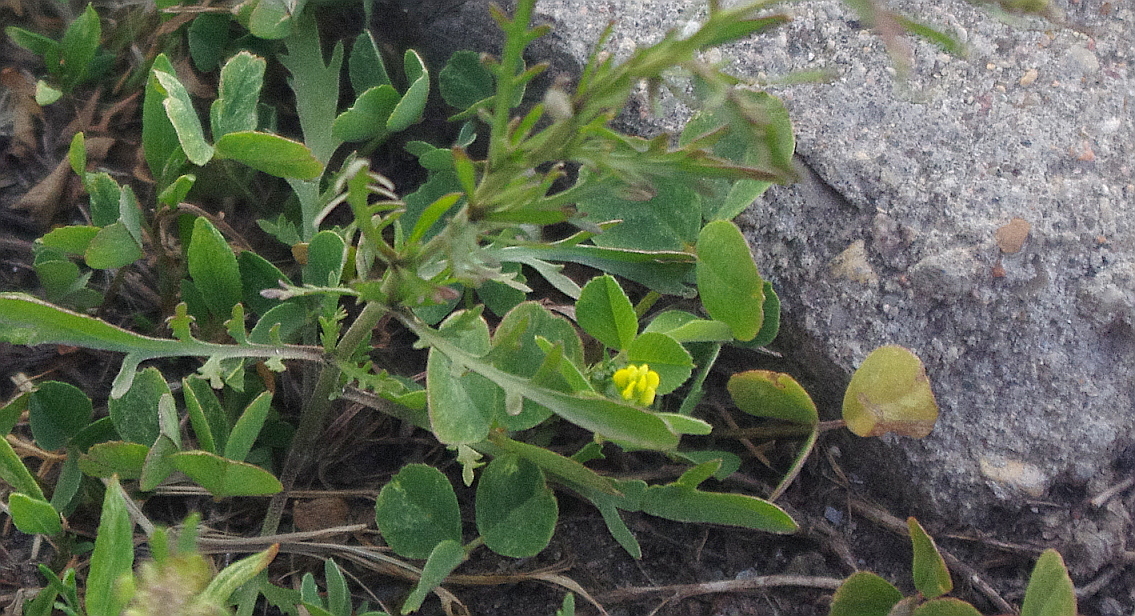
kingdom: Plantae
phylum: Tracheophyta
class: Magnoliopsida
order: Fabales
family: Fabaceae
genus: Medicago
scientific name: Medicago lupulina
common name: Black medick
